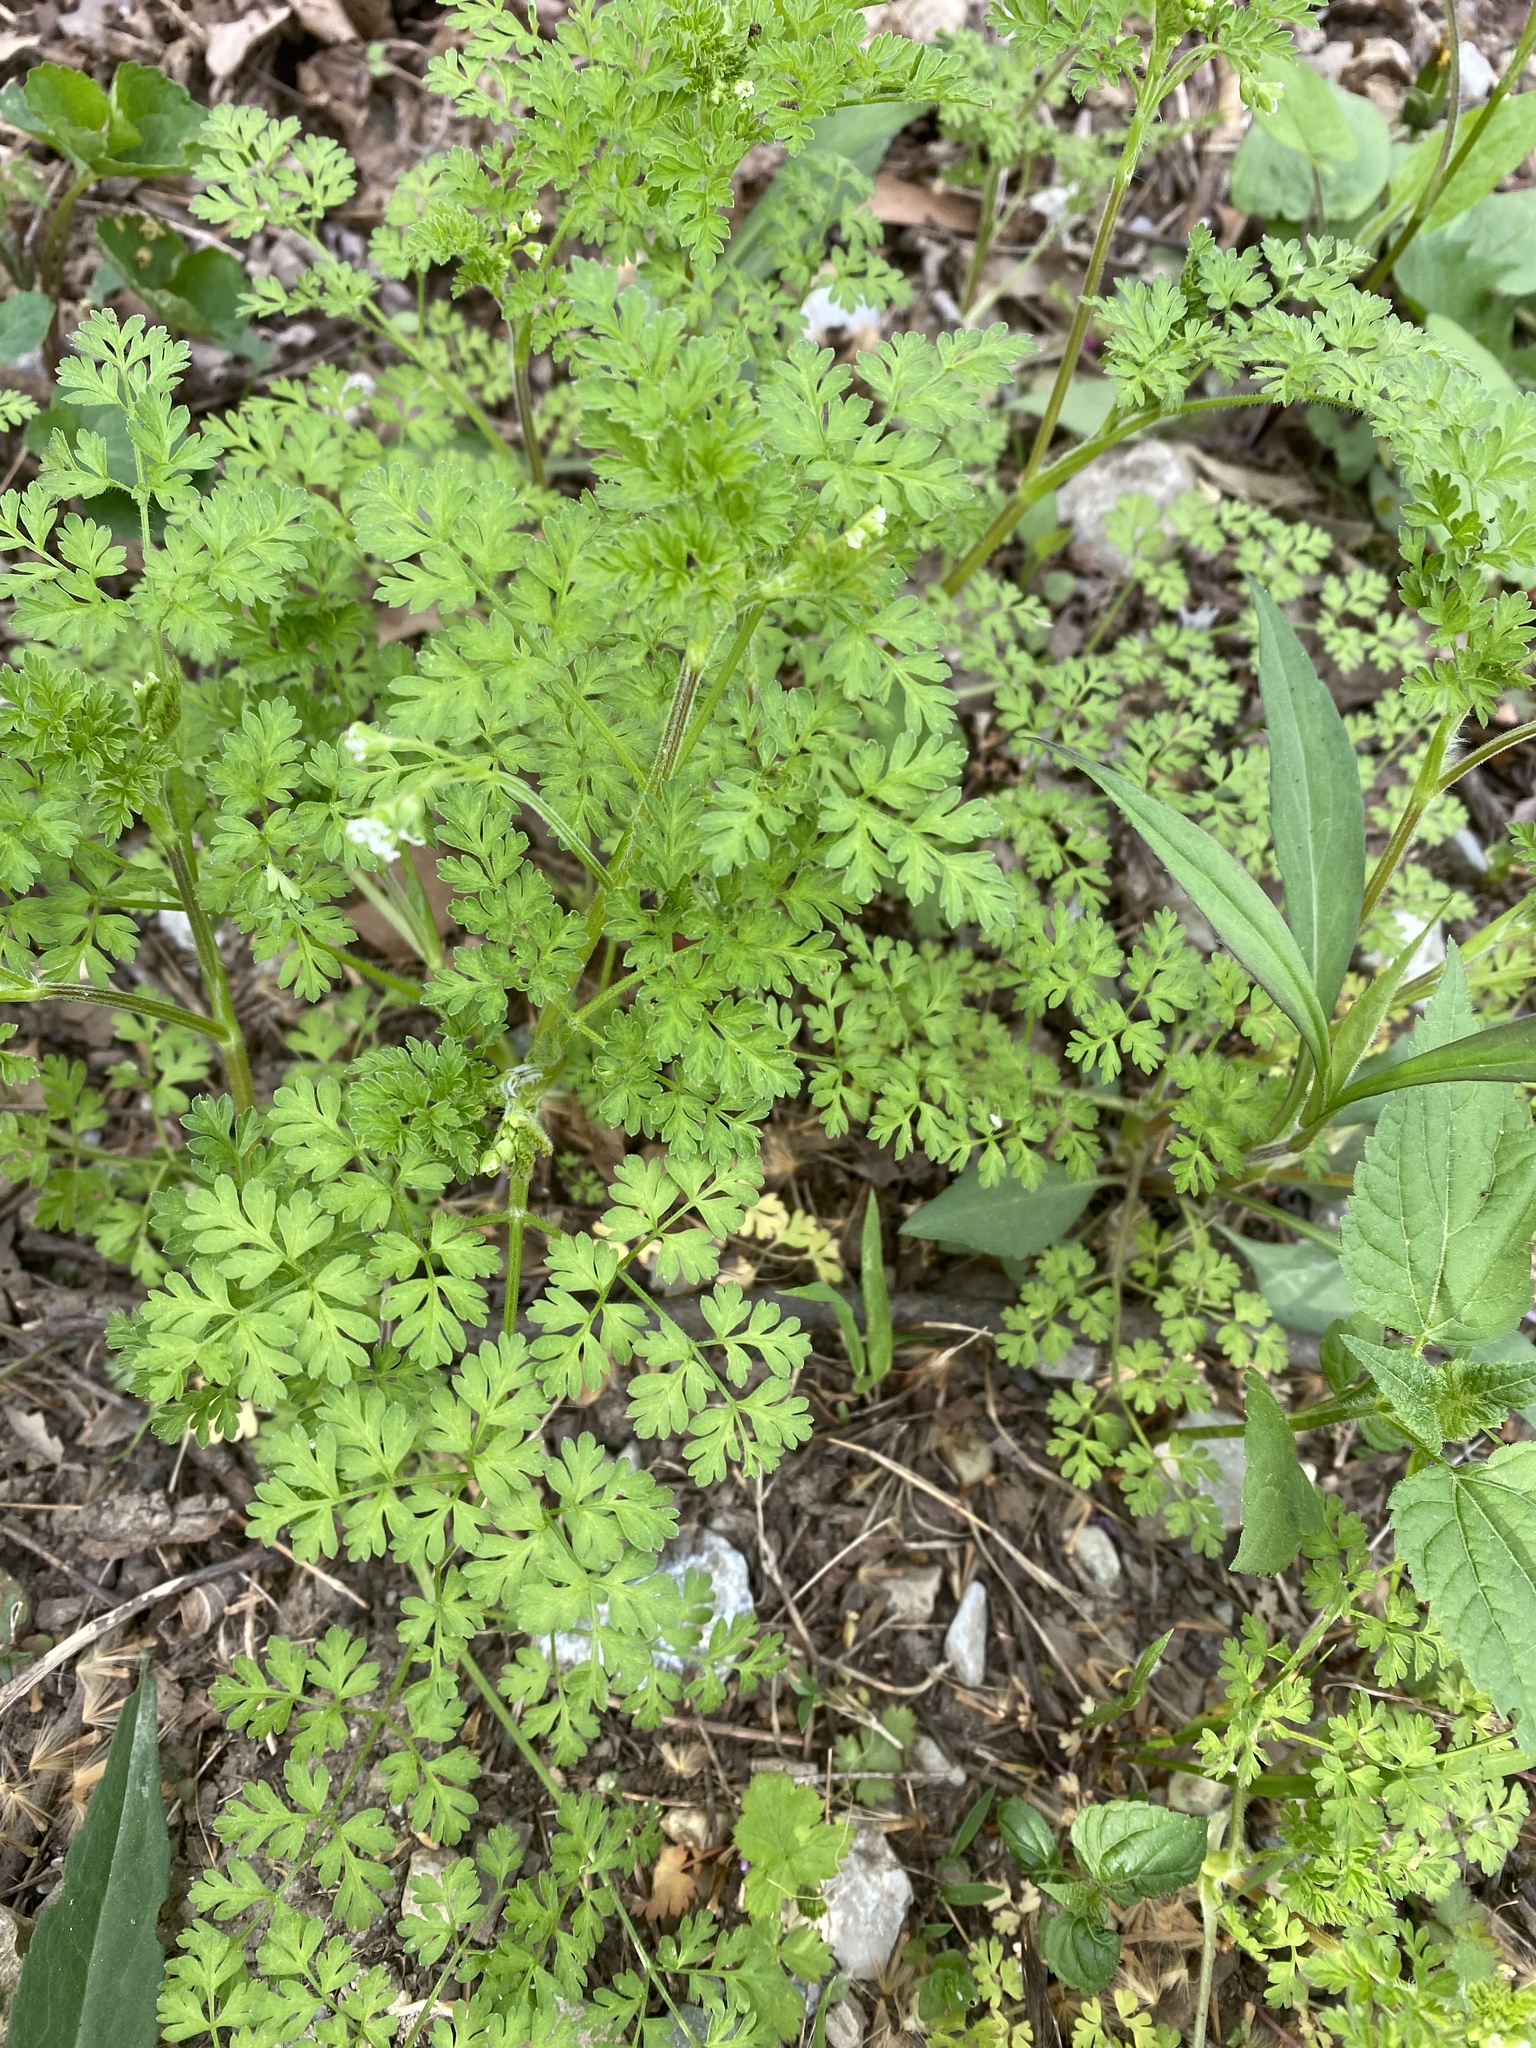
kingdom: Plantae
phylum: Tracheophyta
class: Magnoliopsida
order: Apiales
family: Apiaceae
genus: Chaerophyllum
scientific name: Chaerophyllum procumbens
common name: Spreading chervil
